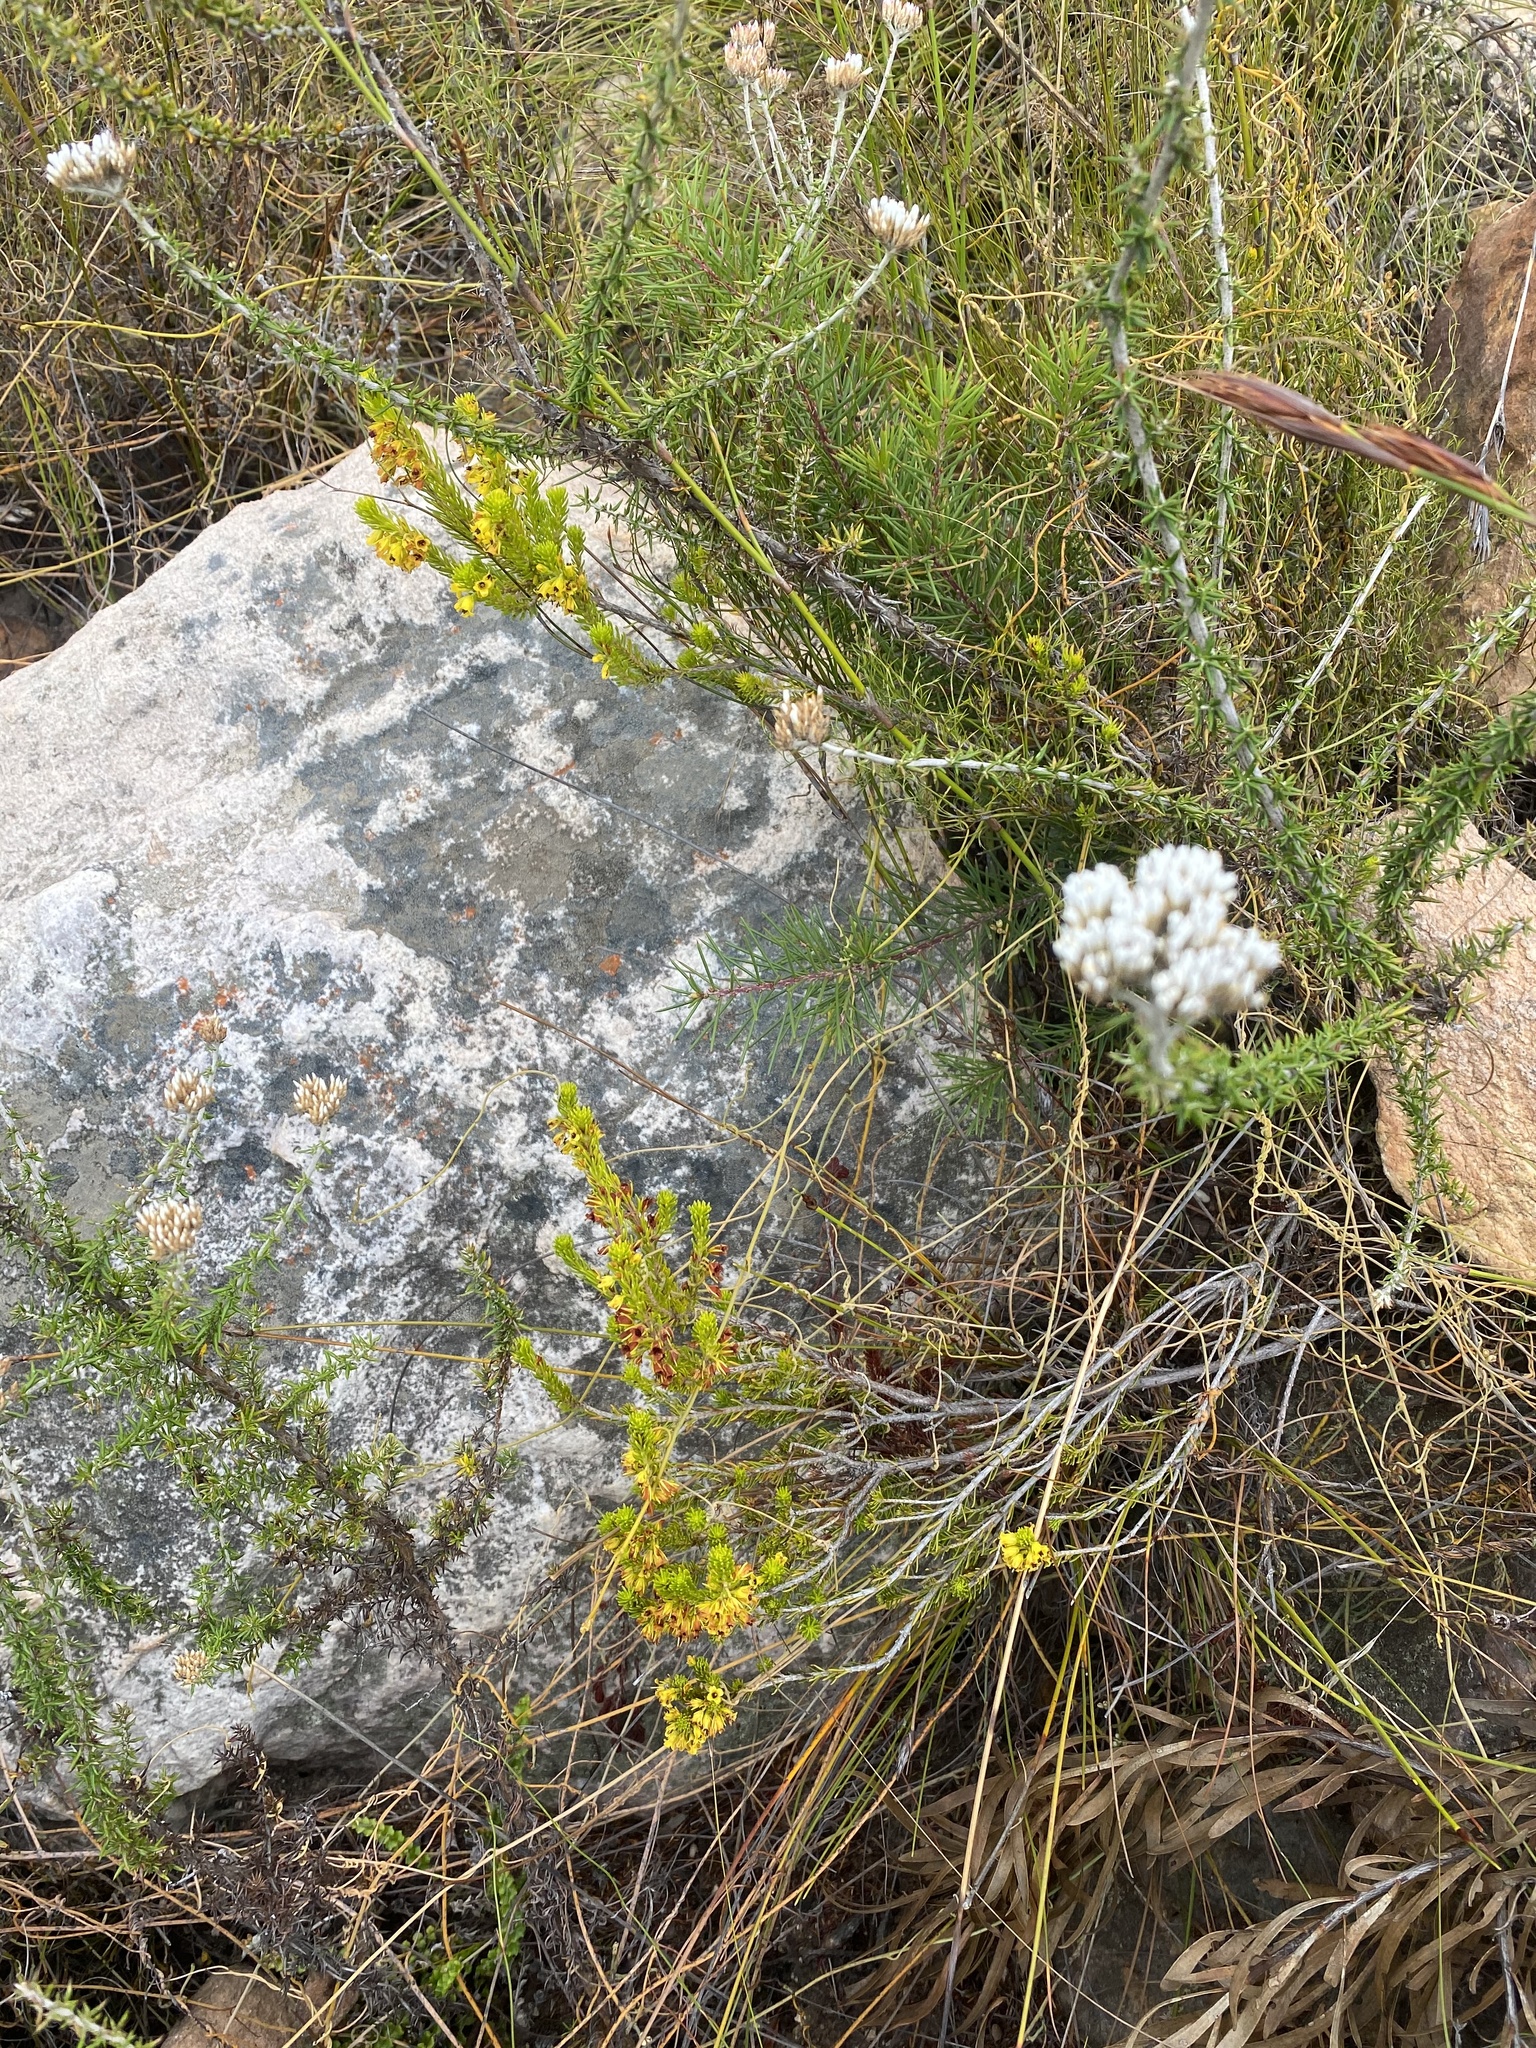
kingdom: Plantae
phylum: Tracheophyta
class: Magnoliopsida
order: Ericales
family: Ericaceae
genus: Erica
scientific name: Erica parilis
